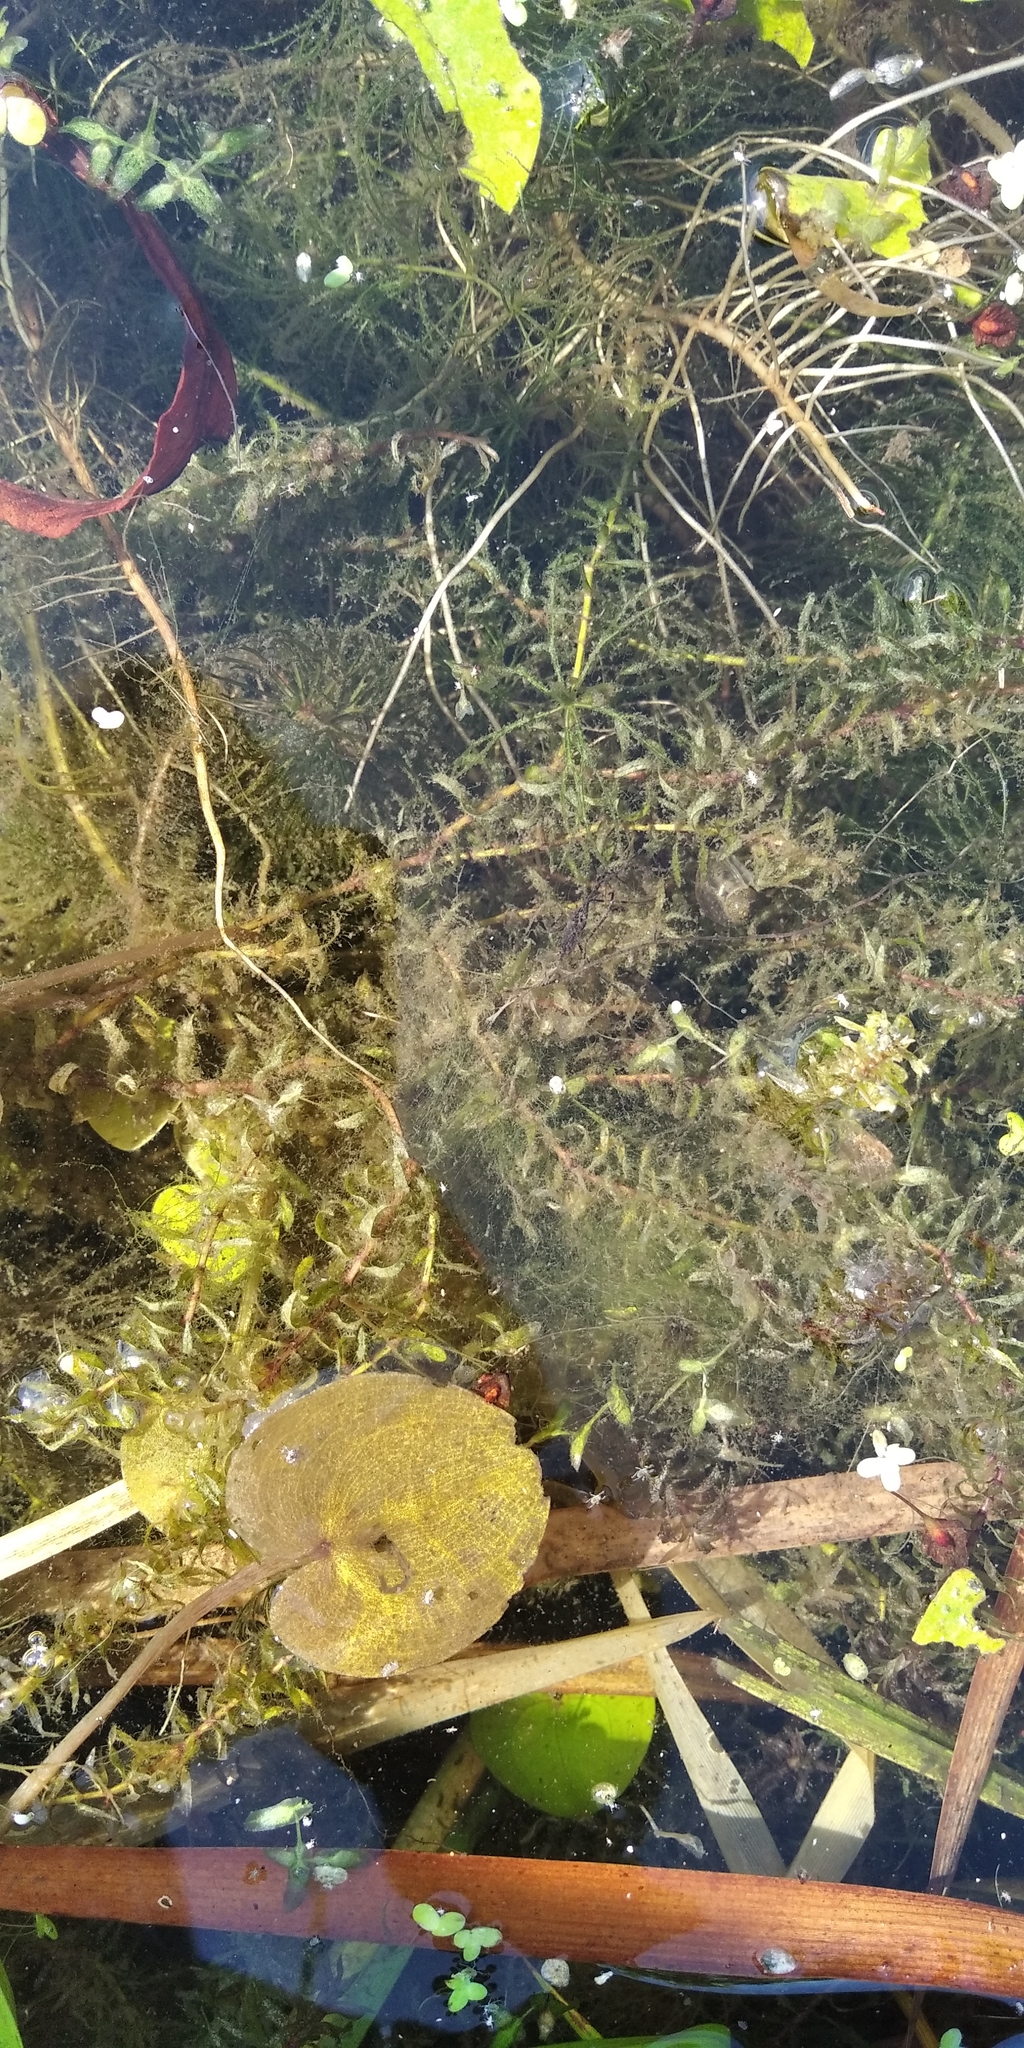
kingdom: Plantae
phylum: Tracheophyta
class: Liliopsida
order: Alismatales
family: Hydrocharitaceae
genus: Elodea
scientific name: Elodea canadensis
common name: Canadian waterweed
